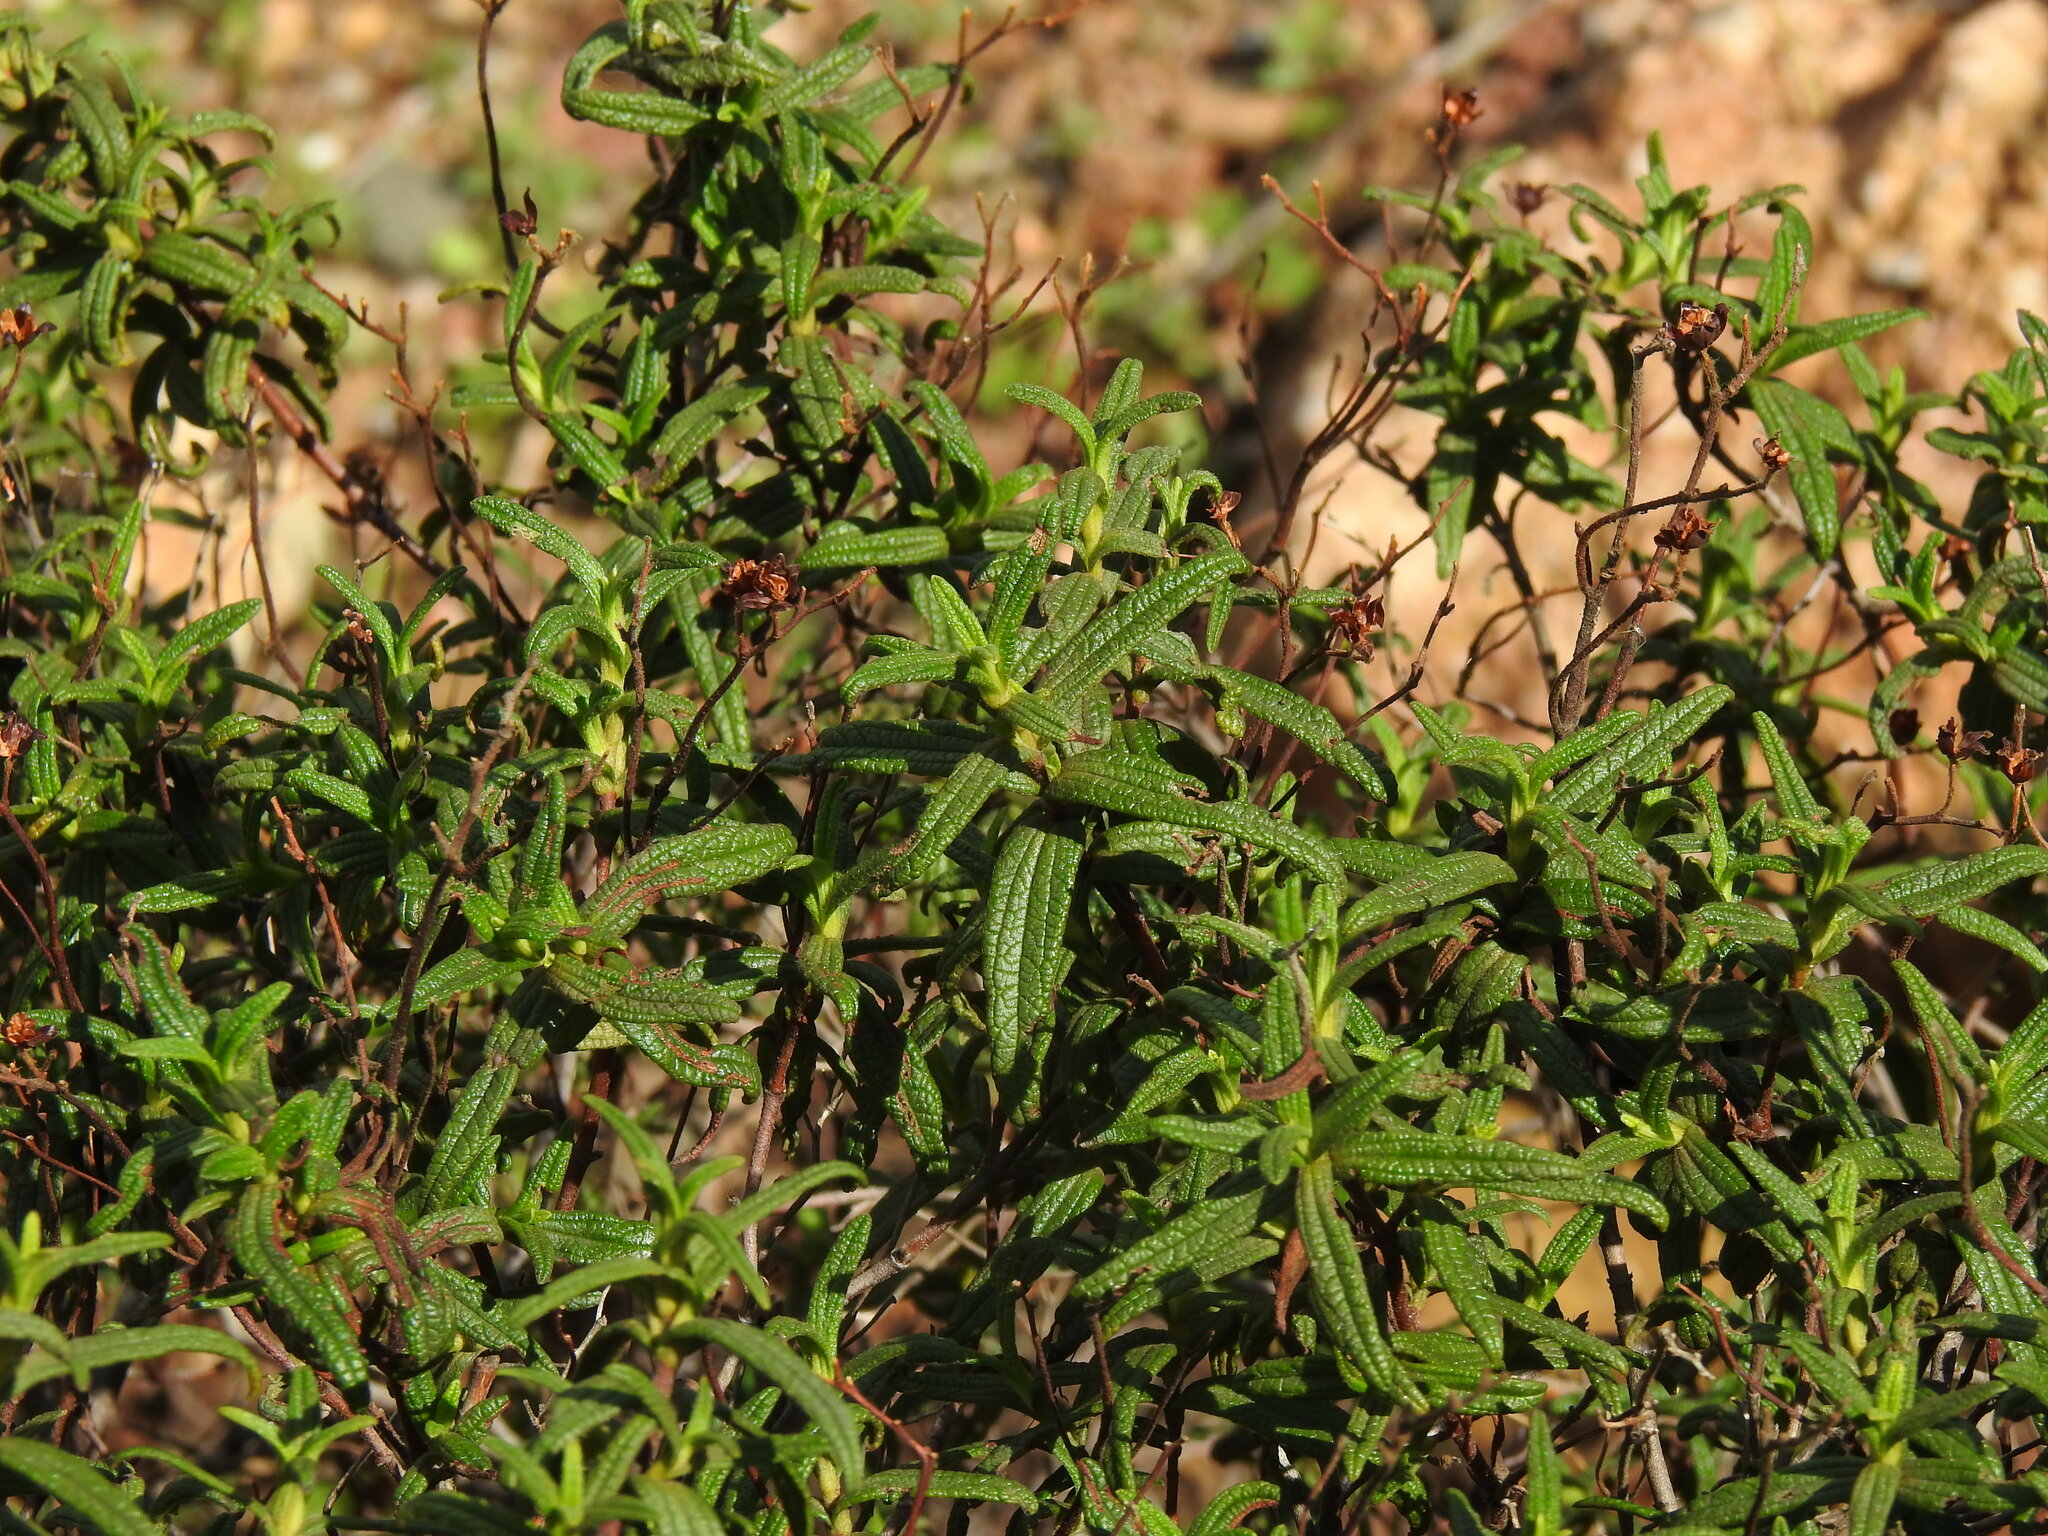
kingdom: Plantae
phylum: Tracheophyta
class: Magnoliopsida
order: Malvales
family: Cistaceae
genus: Cistus
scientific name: Cistus monspeliensis
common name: Montpelier cistus
